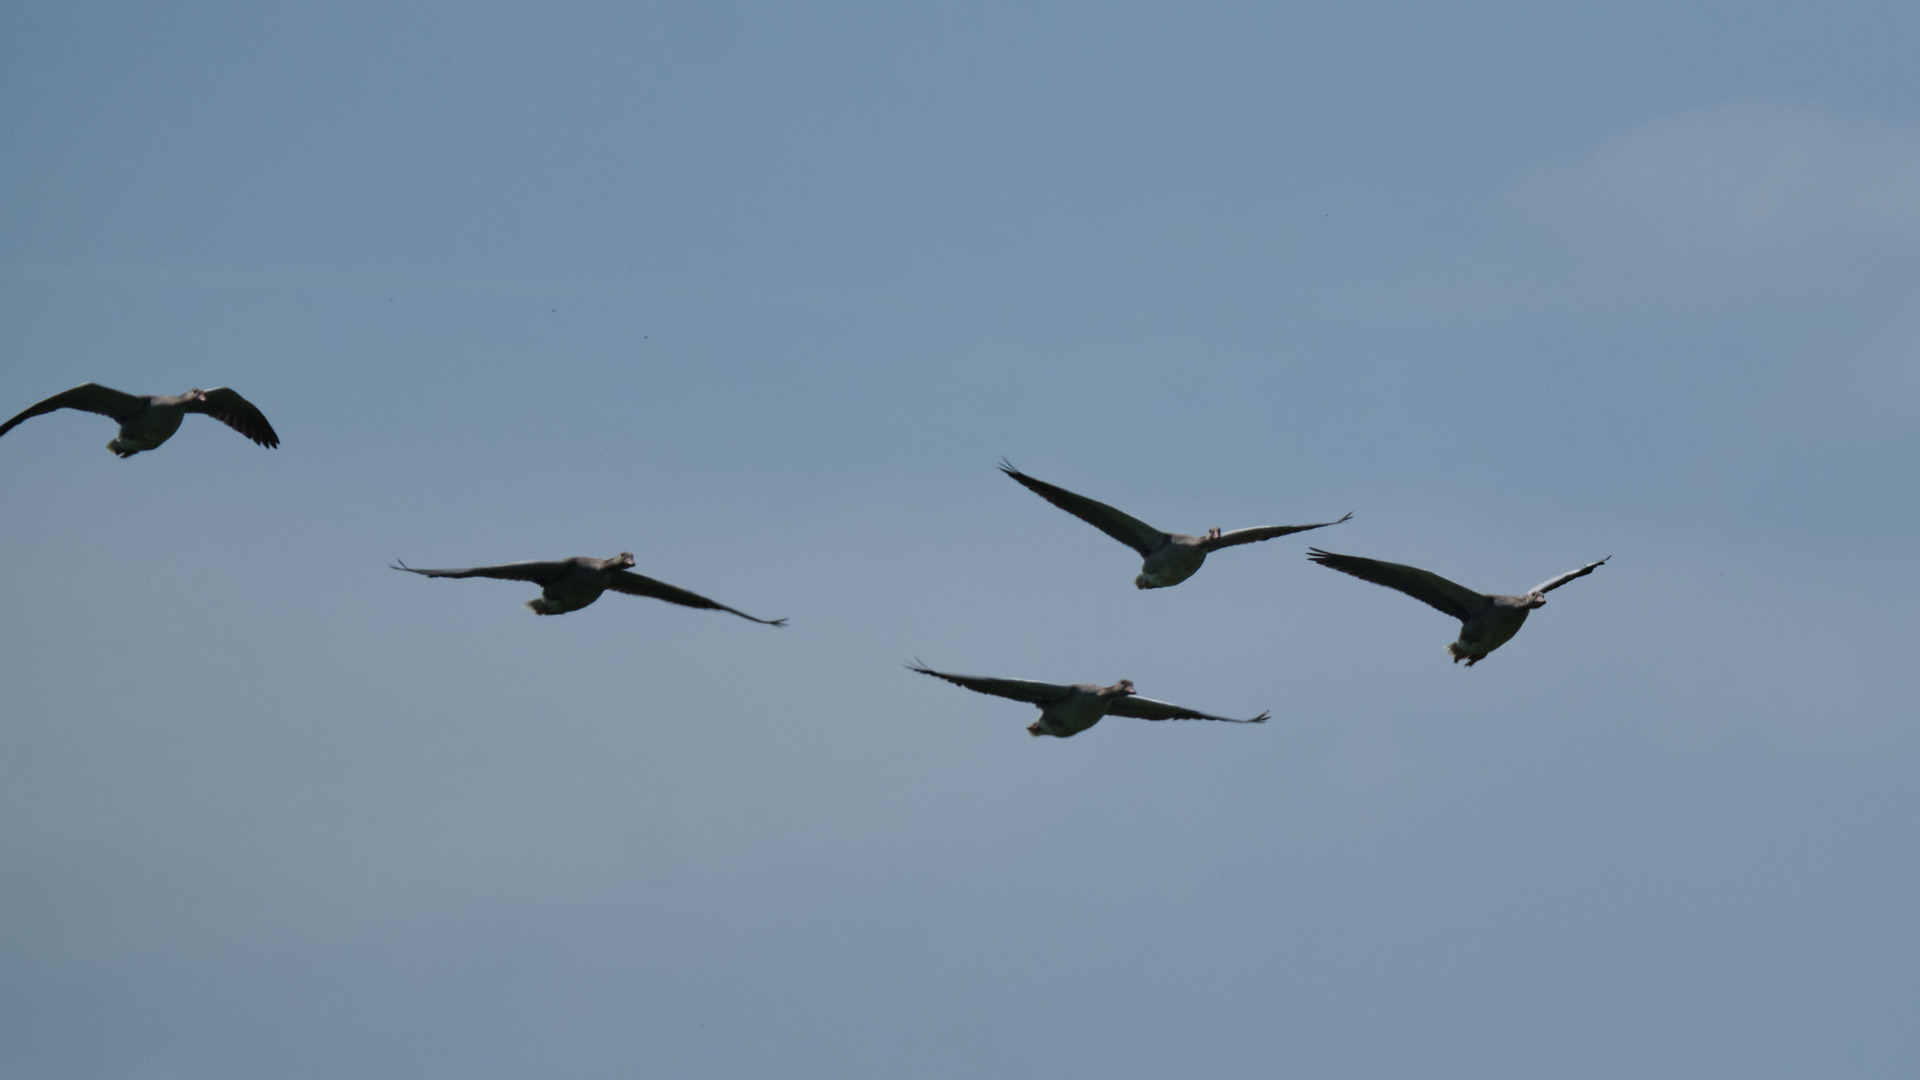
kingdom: Animalia
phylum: Chordata
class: Aves
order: Anseriformes
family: Anatidae
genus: Anser
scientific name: Anser anser
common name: Greylag goose
